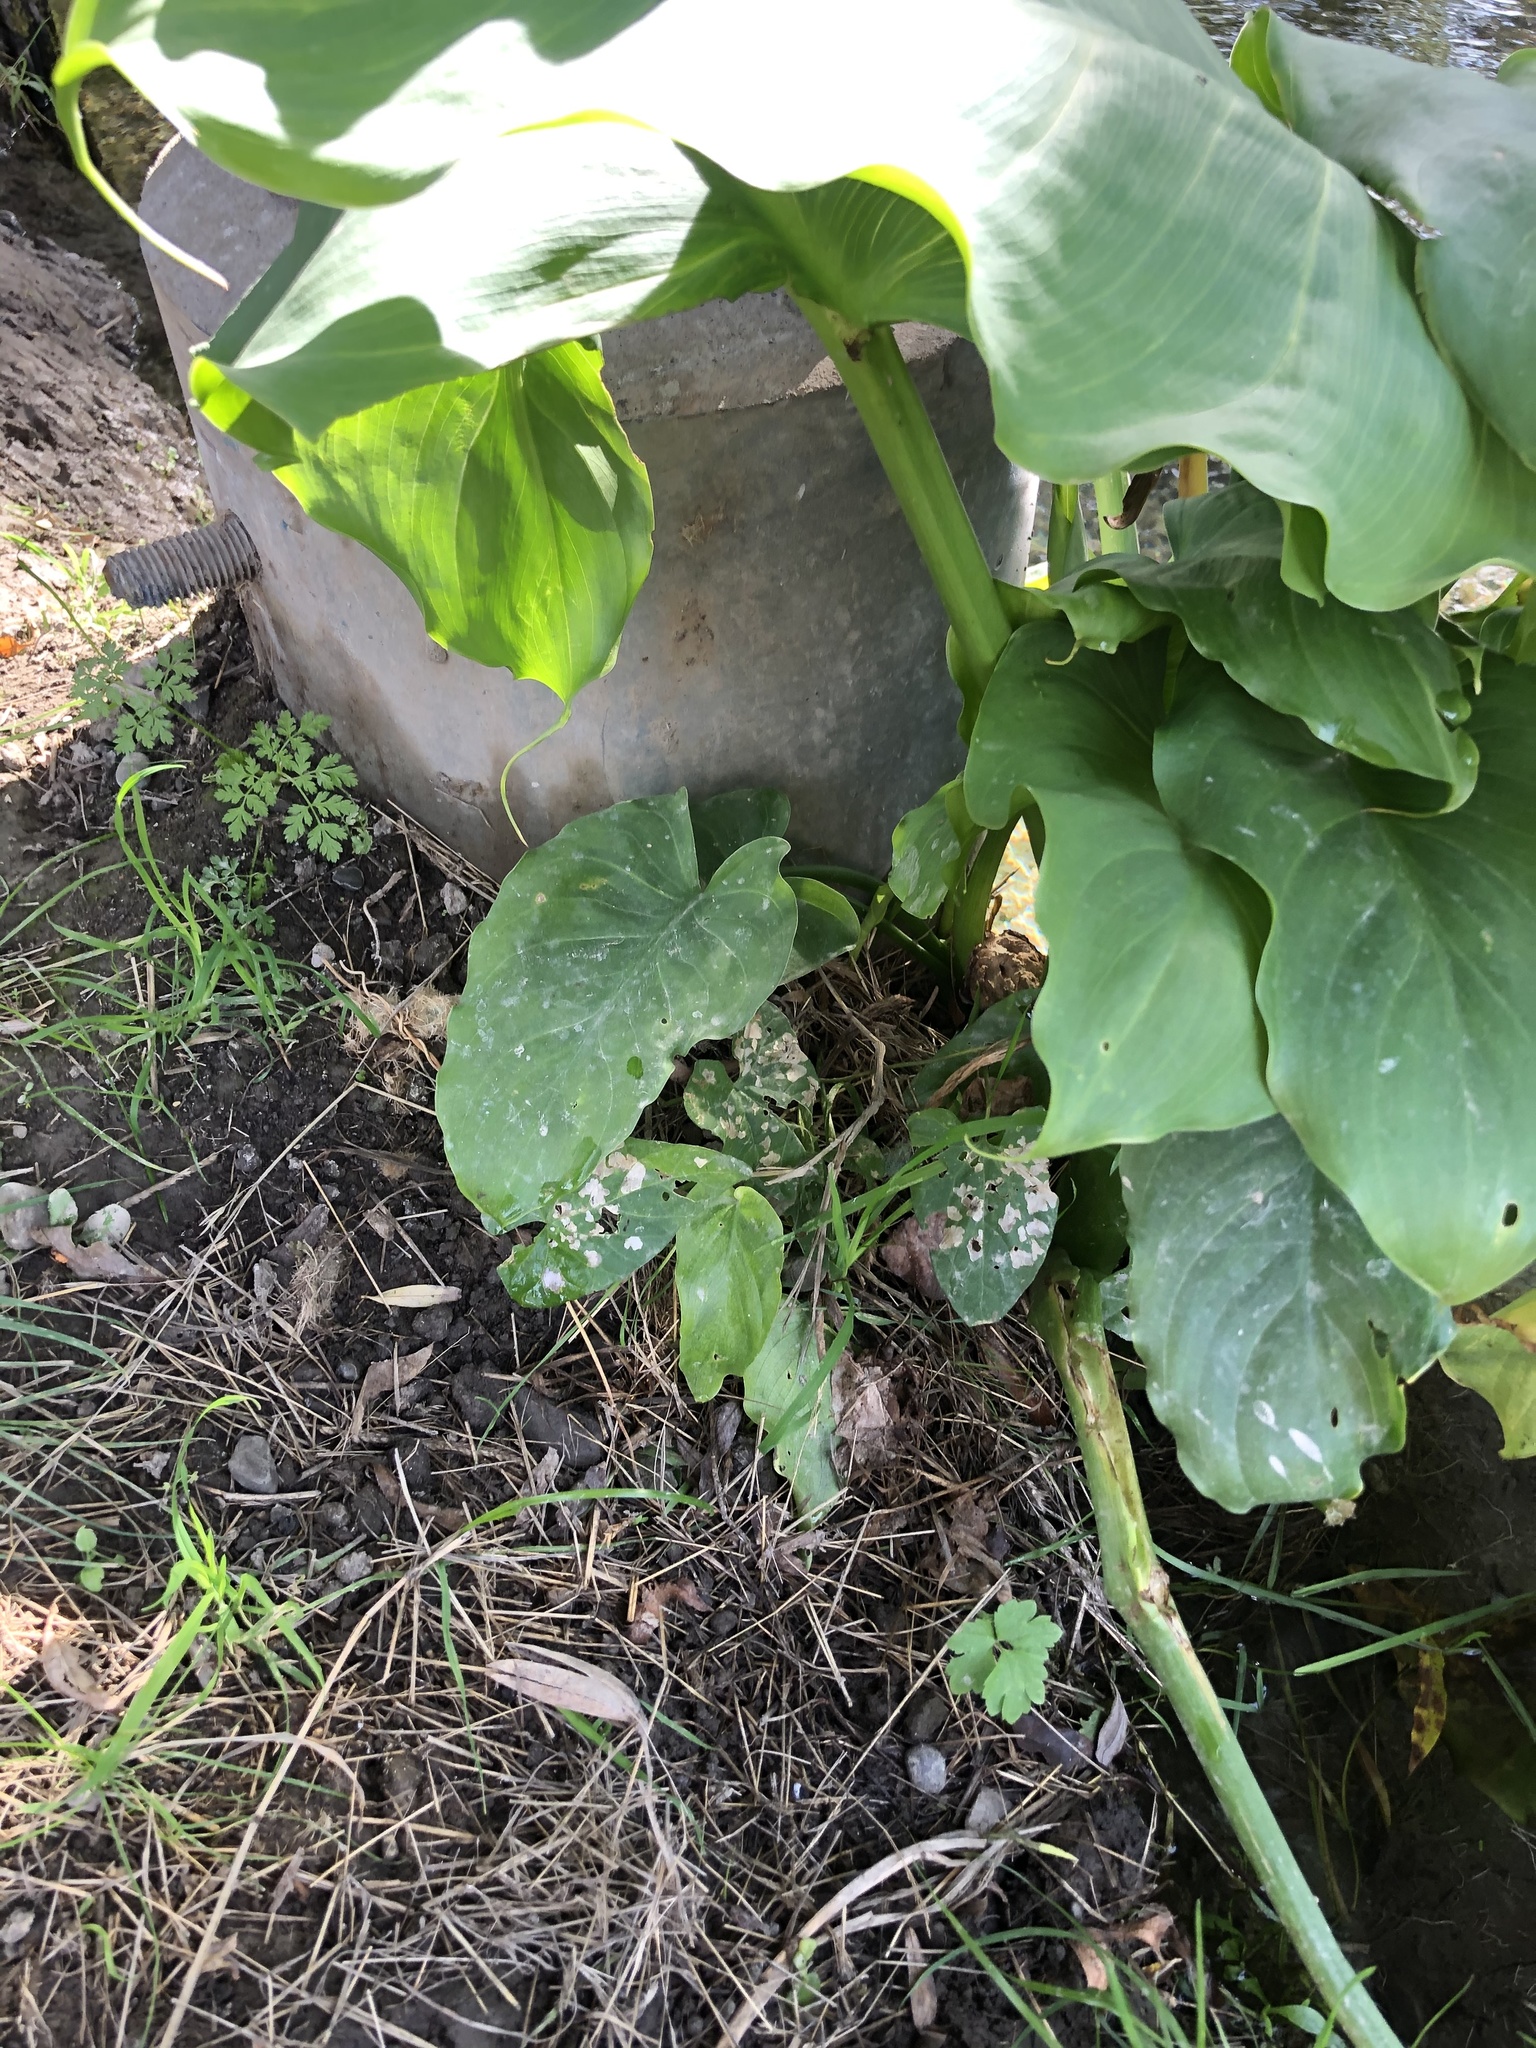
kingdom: Plantae
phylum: Tracheophyta
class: Liliopsida
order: Alismatales
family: Araceae
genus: Zantedeschia
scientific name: Zantedeschia aethiopica
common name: Altar-lily
